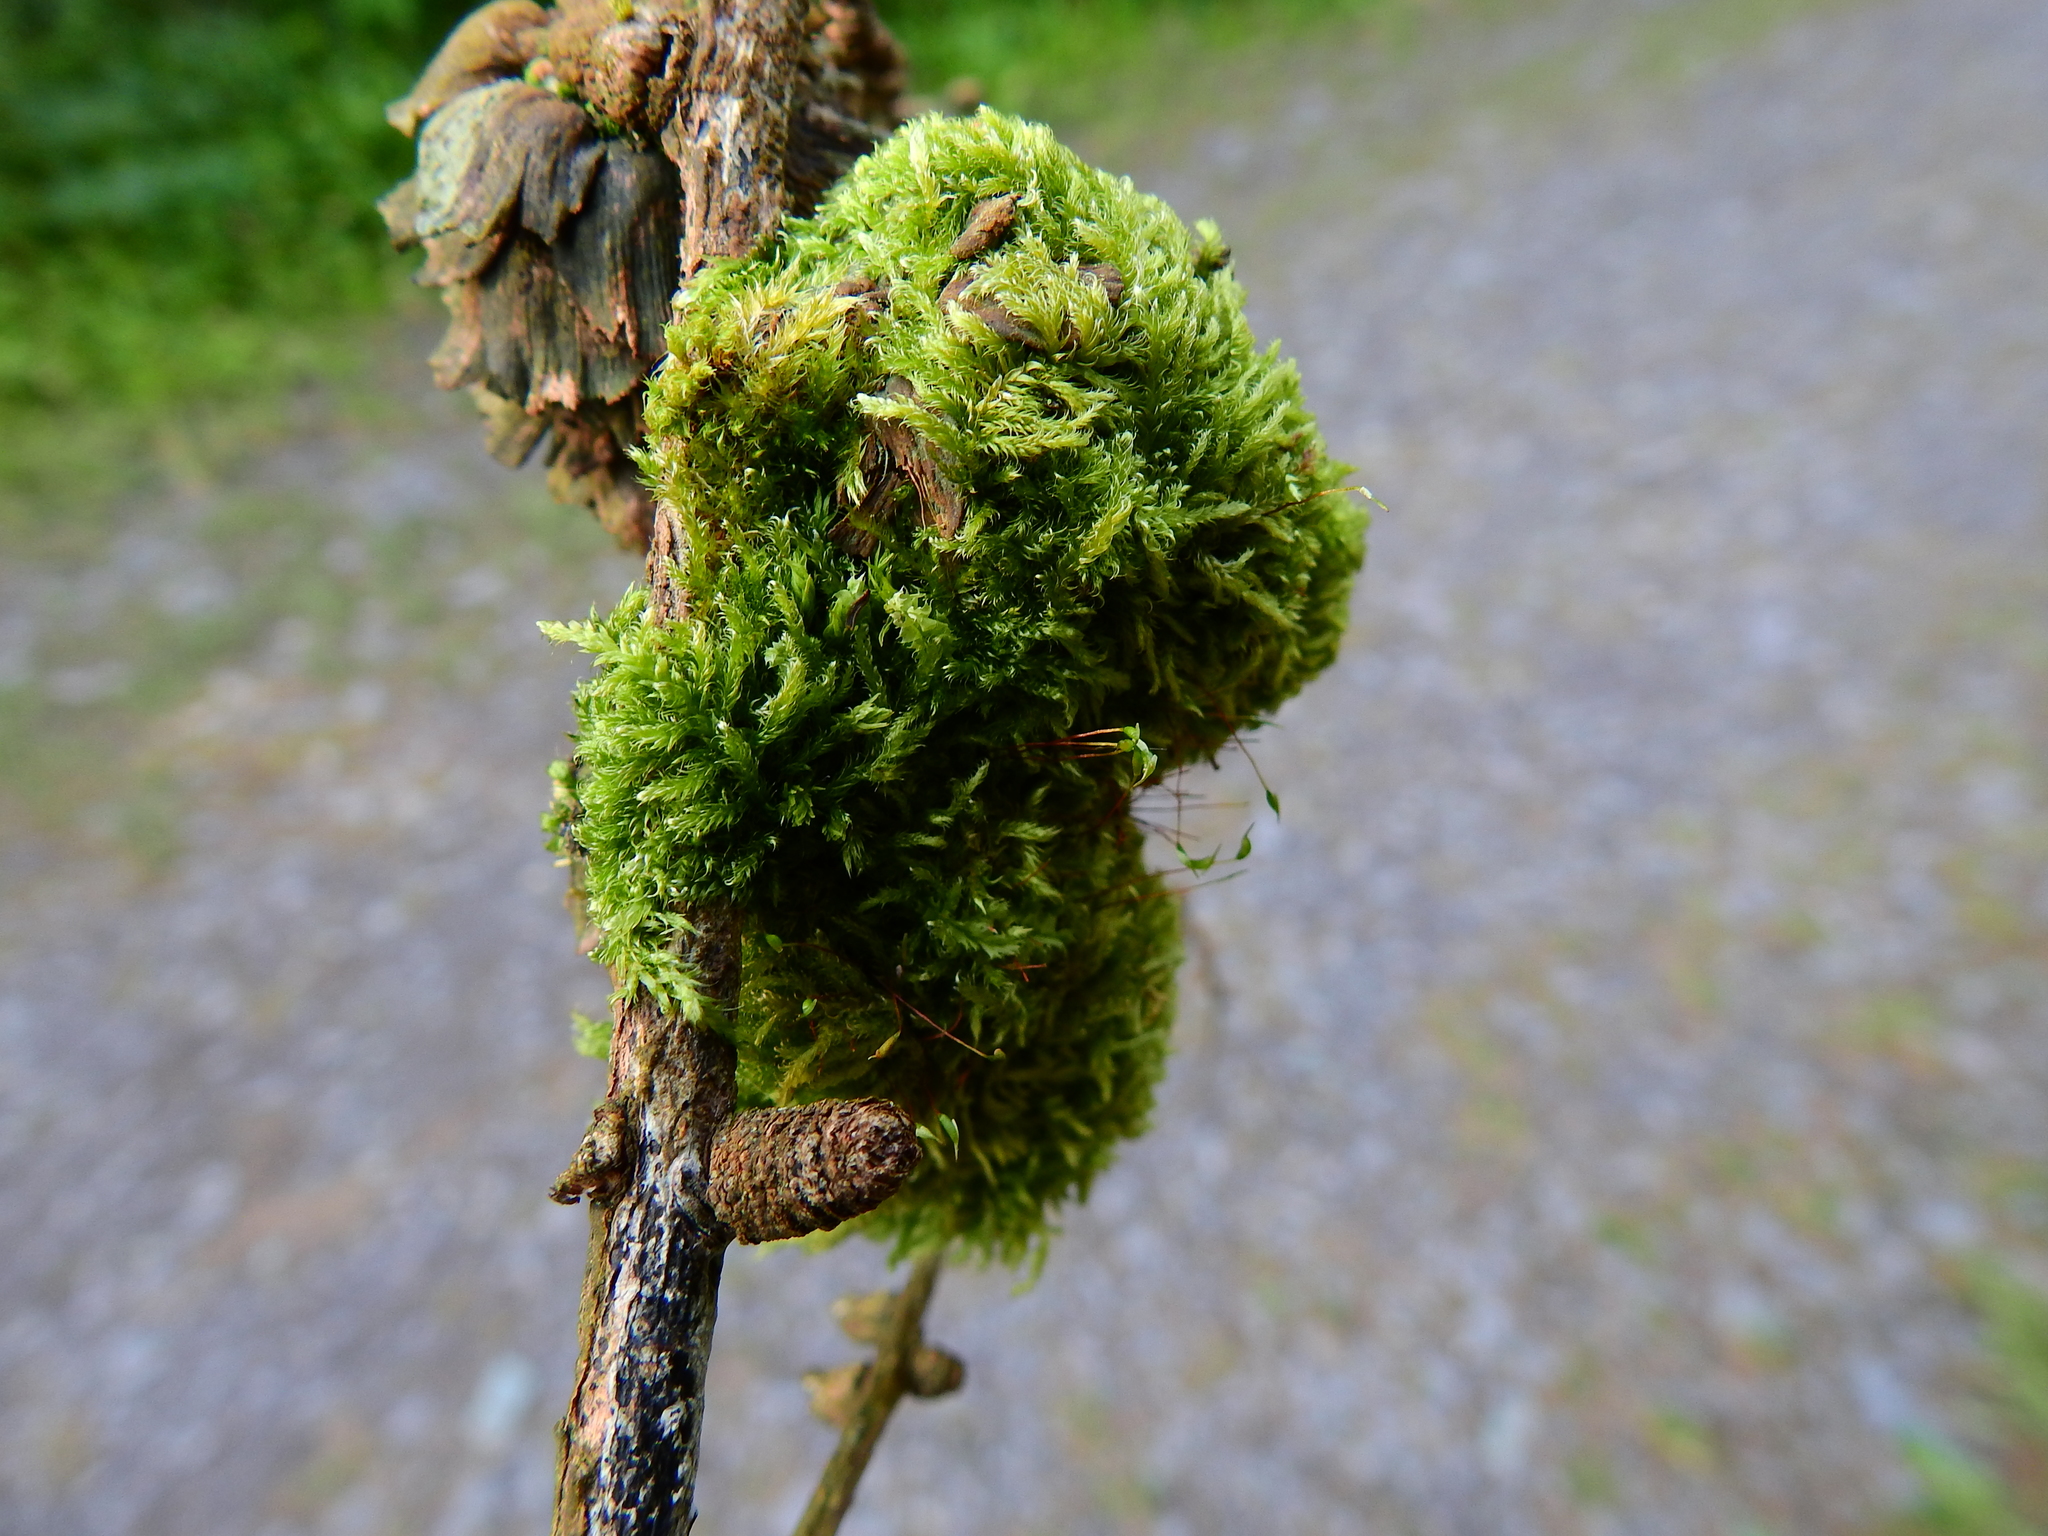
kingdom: Plantae
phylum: Bryophyta
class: Bryopsida
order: Hypnales
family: Hypnaceae
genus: Hypnum
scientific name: Hypnum cupressiforme
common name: Cypress-leaved plait-moss
